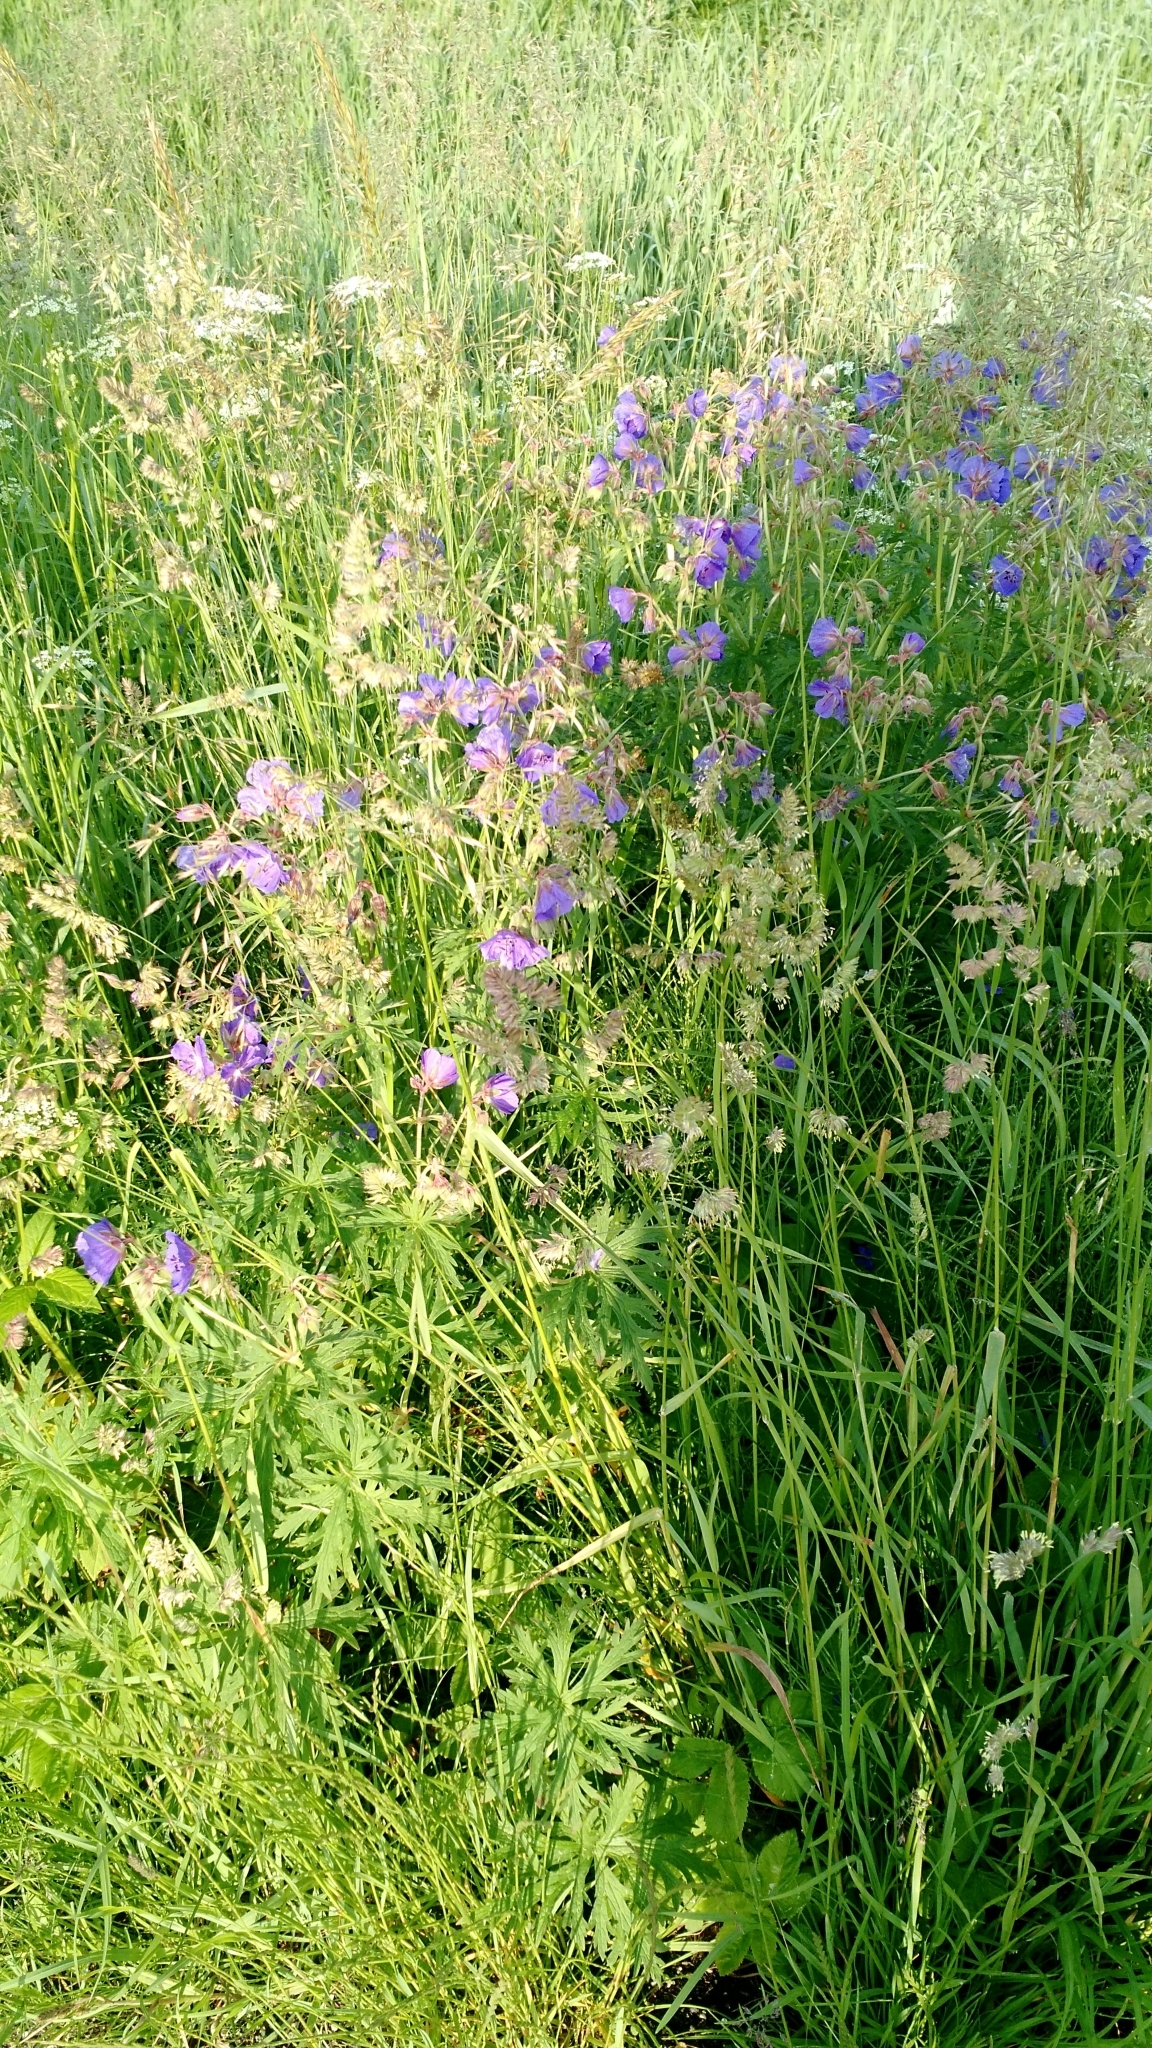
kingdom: Plantae
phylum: Tracheophyta
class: Magnoliopsida
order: Geraniales
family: Geraniaceae
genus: Geranium
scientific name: Geranium pratense
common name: Meadow crane's-bill
